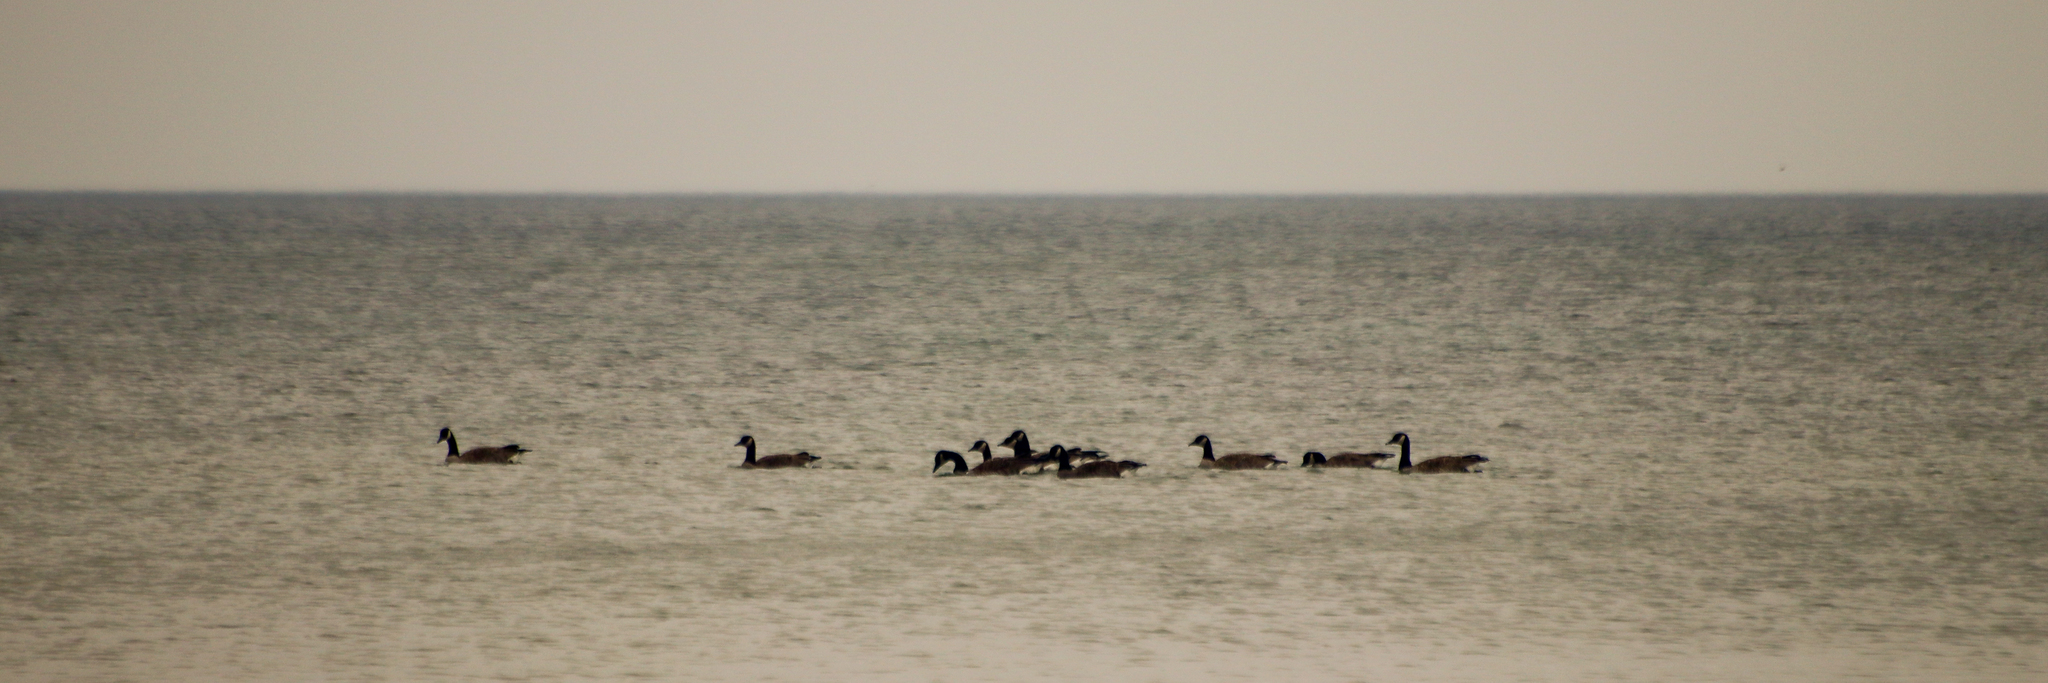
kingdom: Animalia
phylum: Chordata
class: Aves
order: Anseriformes
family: Anatidae
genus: Branta
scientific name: Branta canadensis
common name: Canada goose
